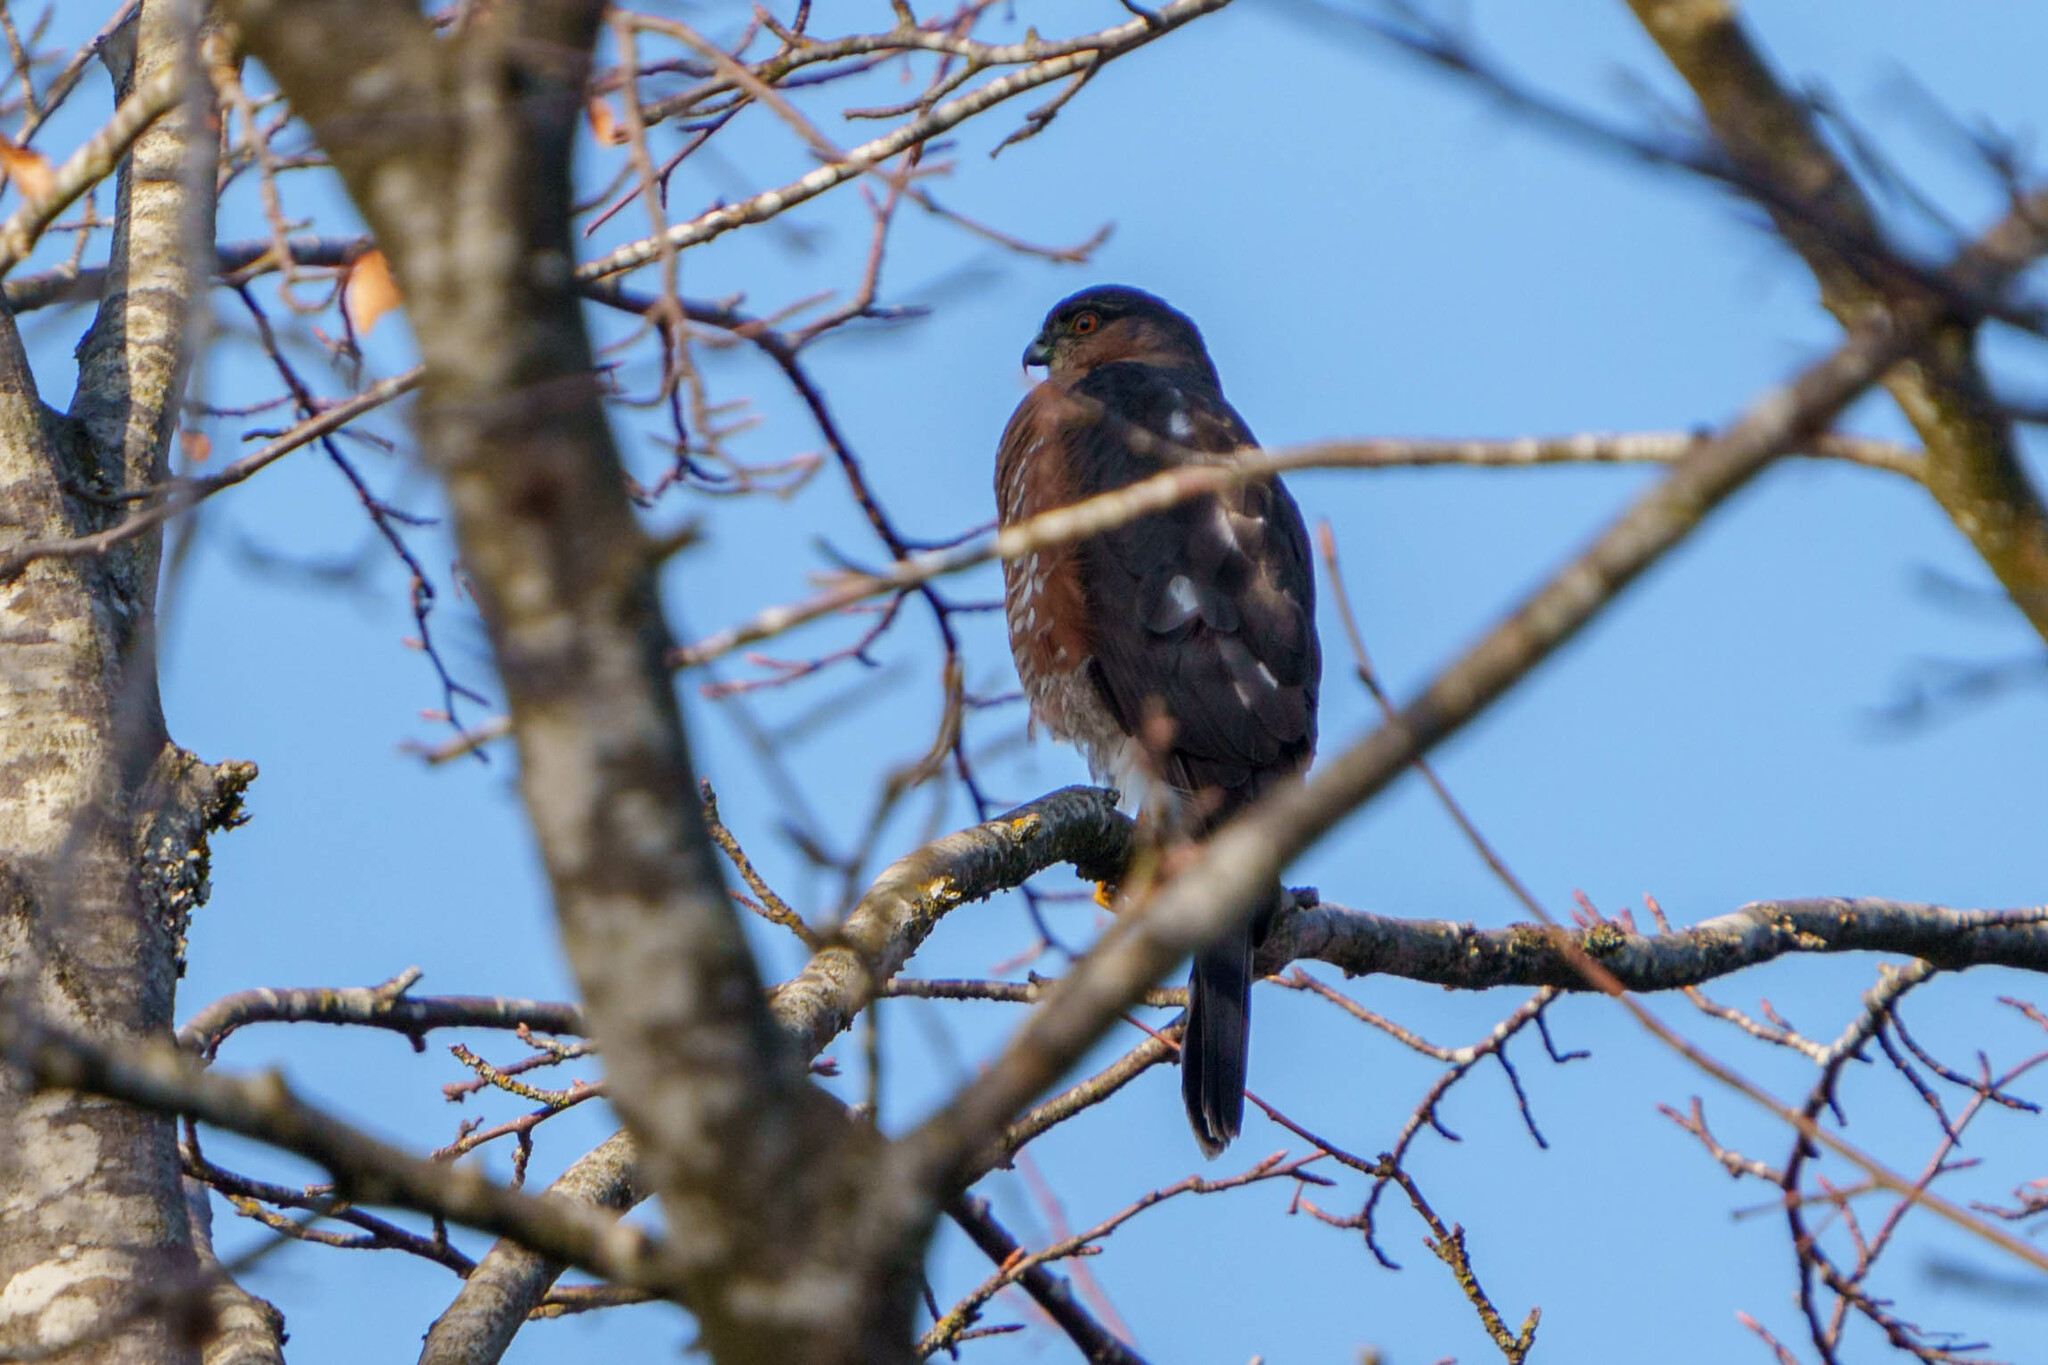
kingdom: Animalia
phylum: Chordata
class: Aves
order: Accipitriformes
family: Accipitridae
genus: Accipiter
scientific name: Accipiter striatus
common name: Sharp-shinned hawk
